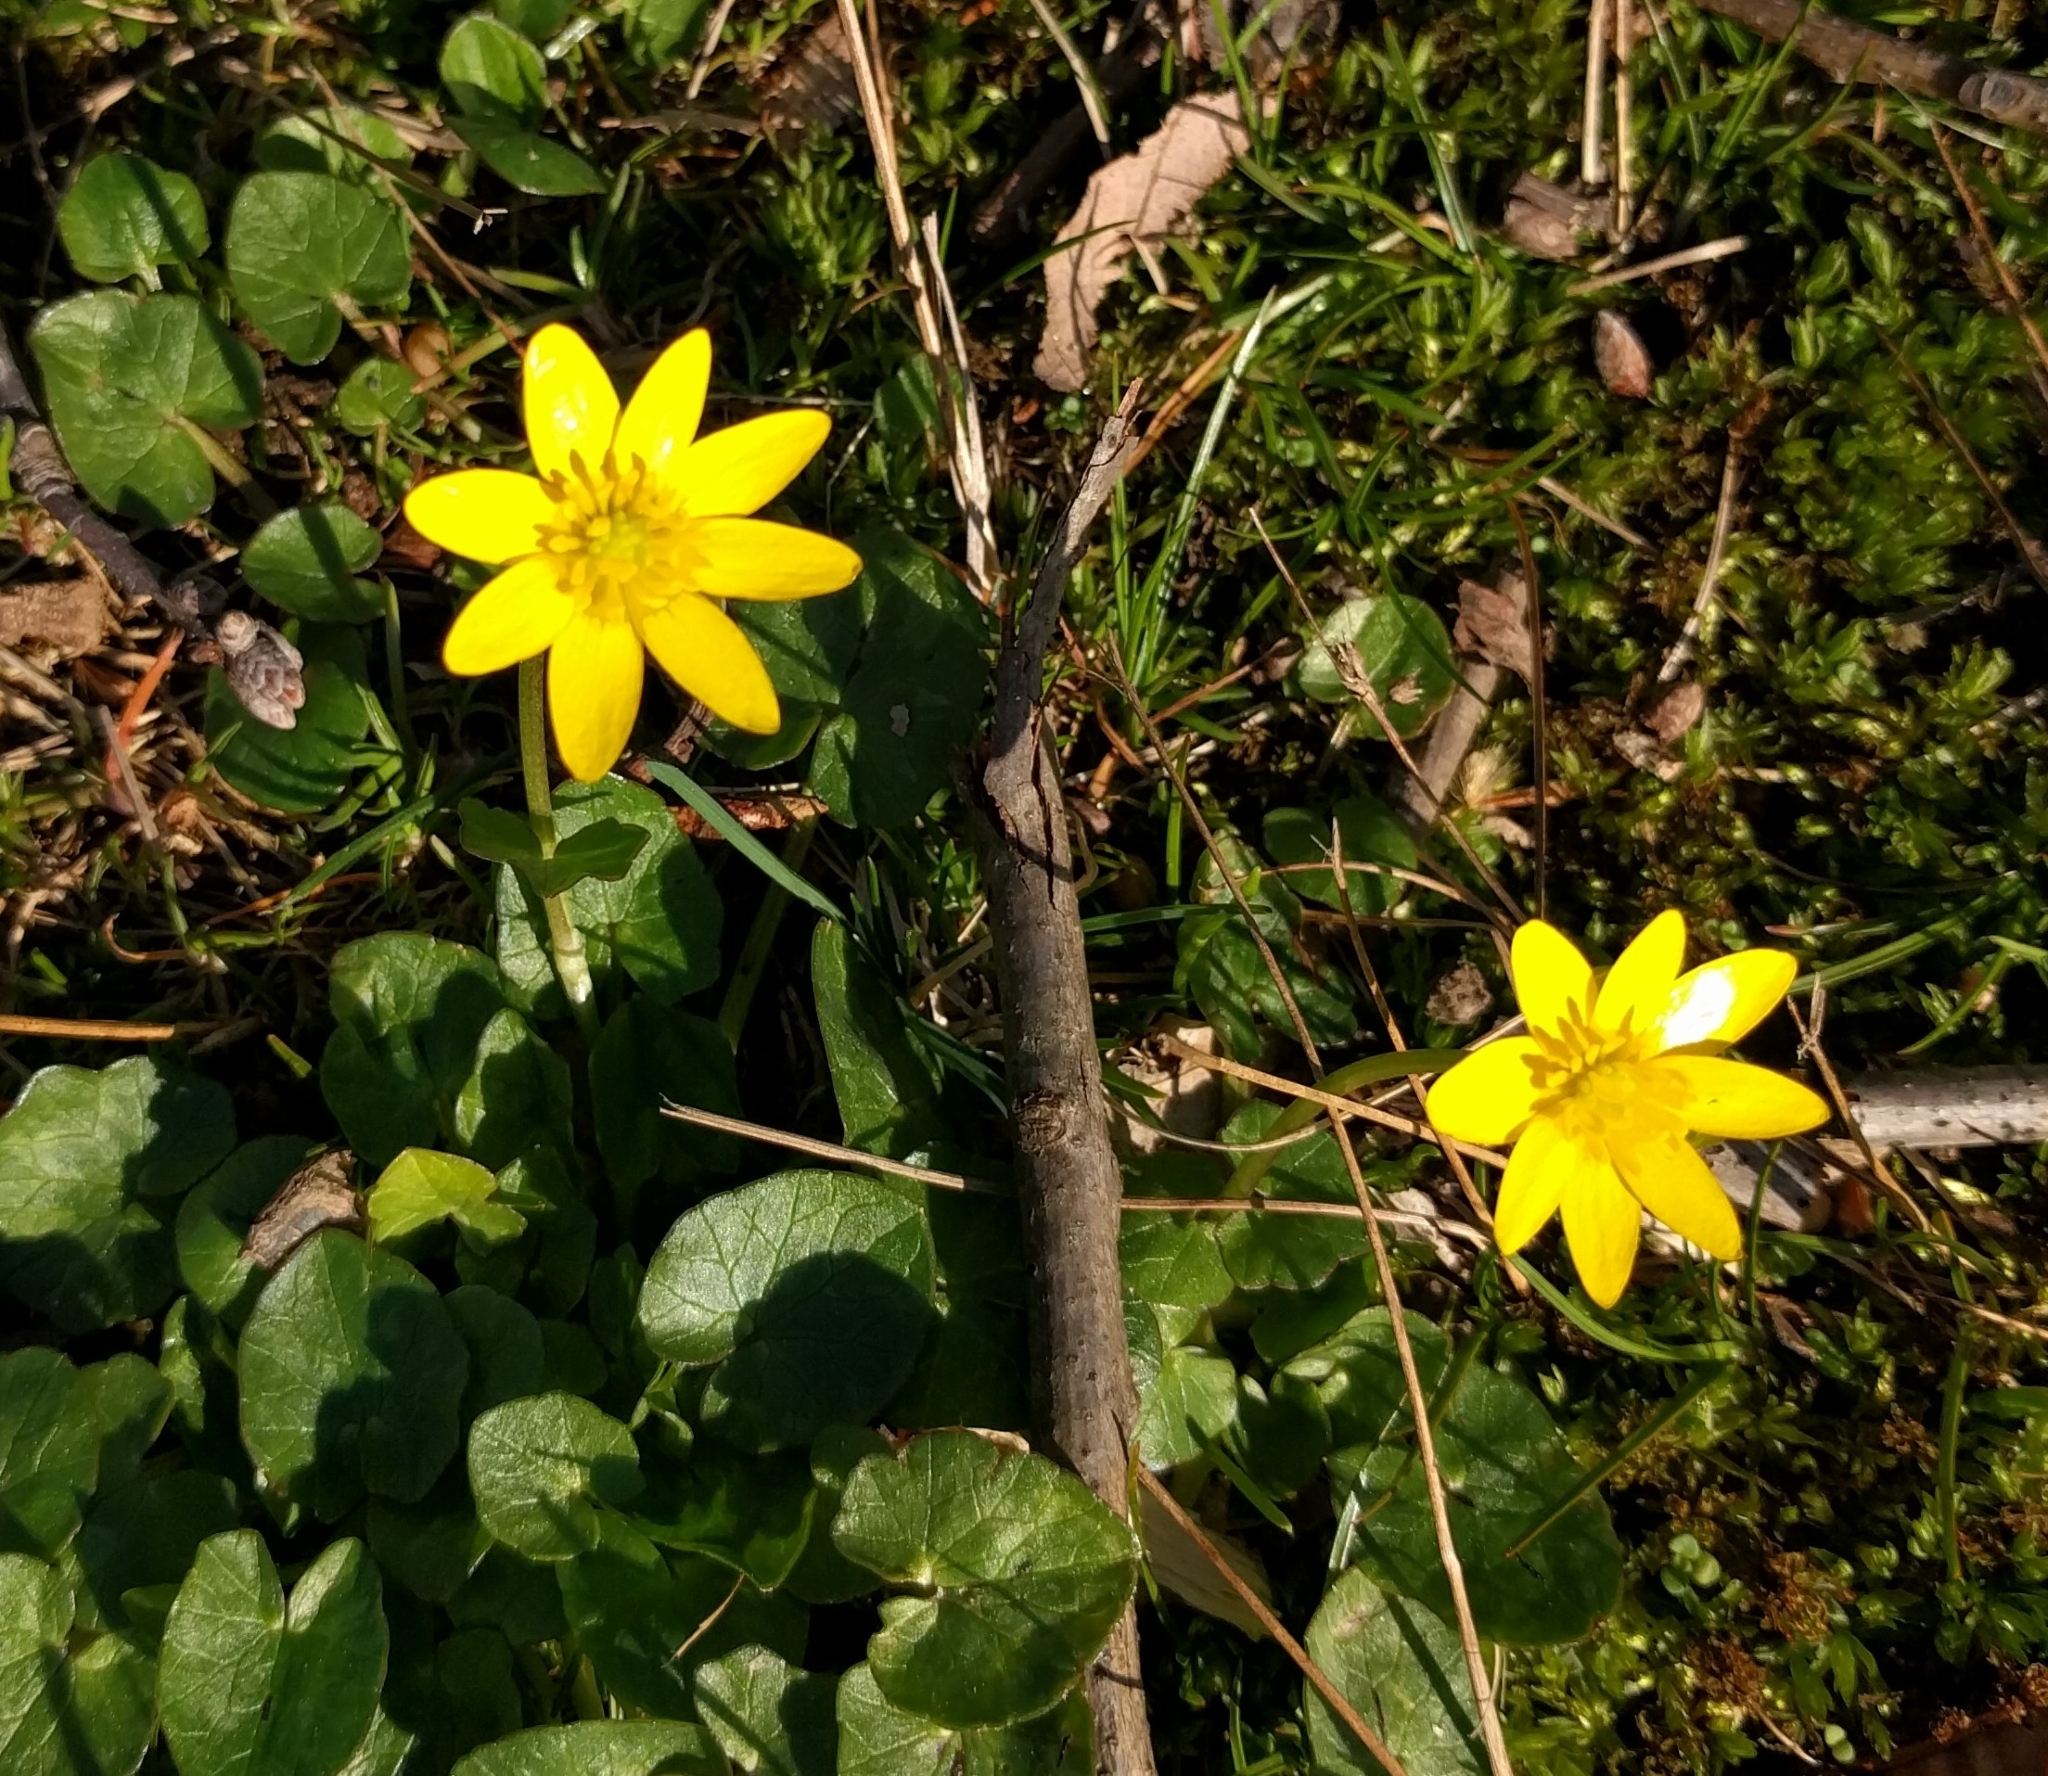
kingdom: Plantae
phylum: Tracheophyta
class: Magnoliopsida
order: Ranunculales
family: Ranunculaceae
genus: Ficaria
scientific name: Ficaria verna
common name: Lesser celandine
